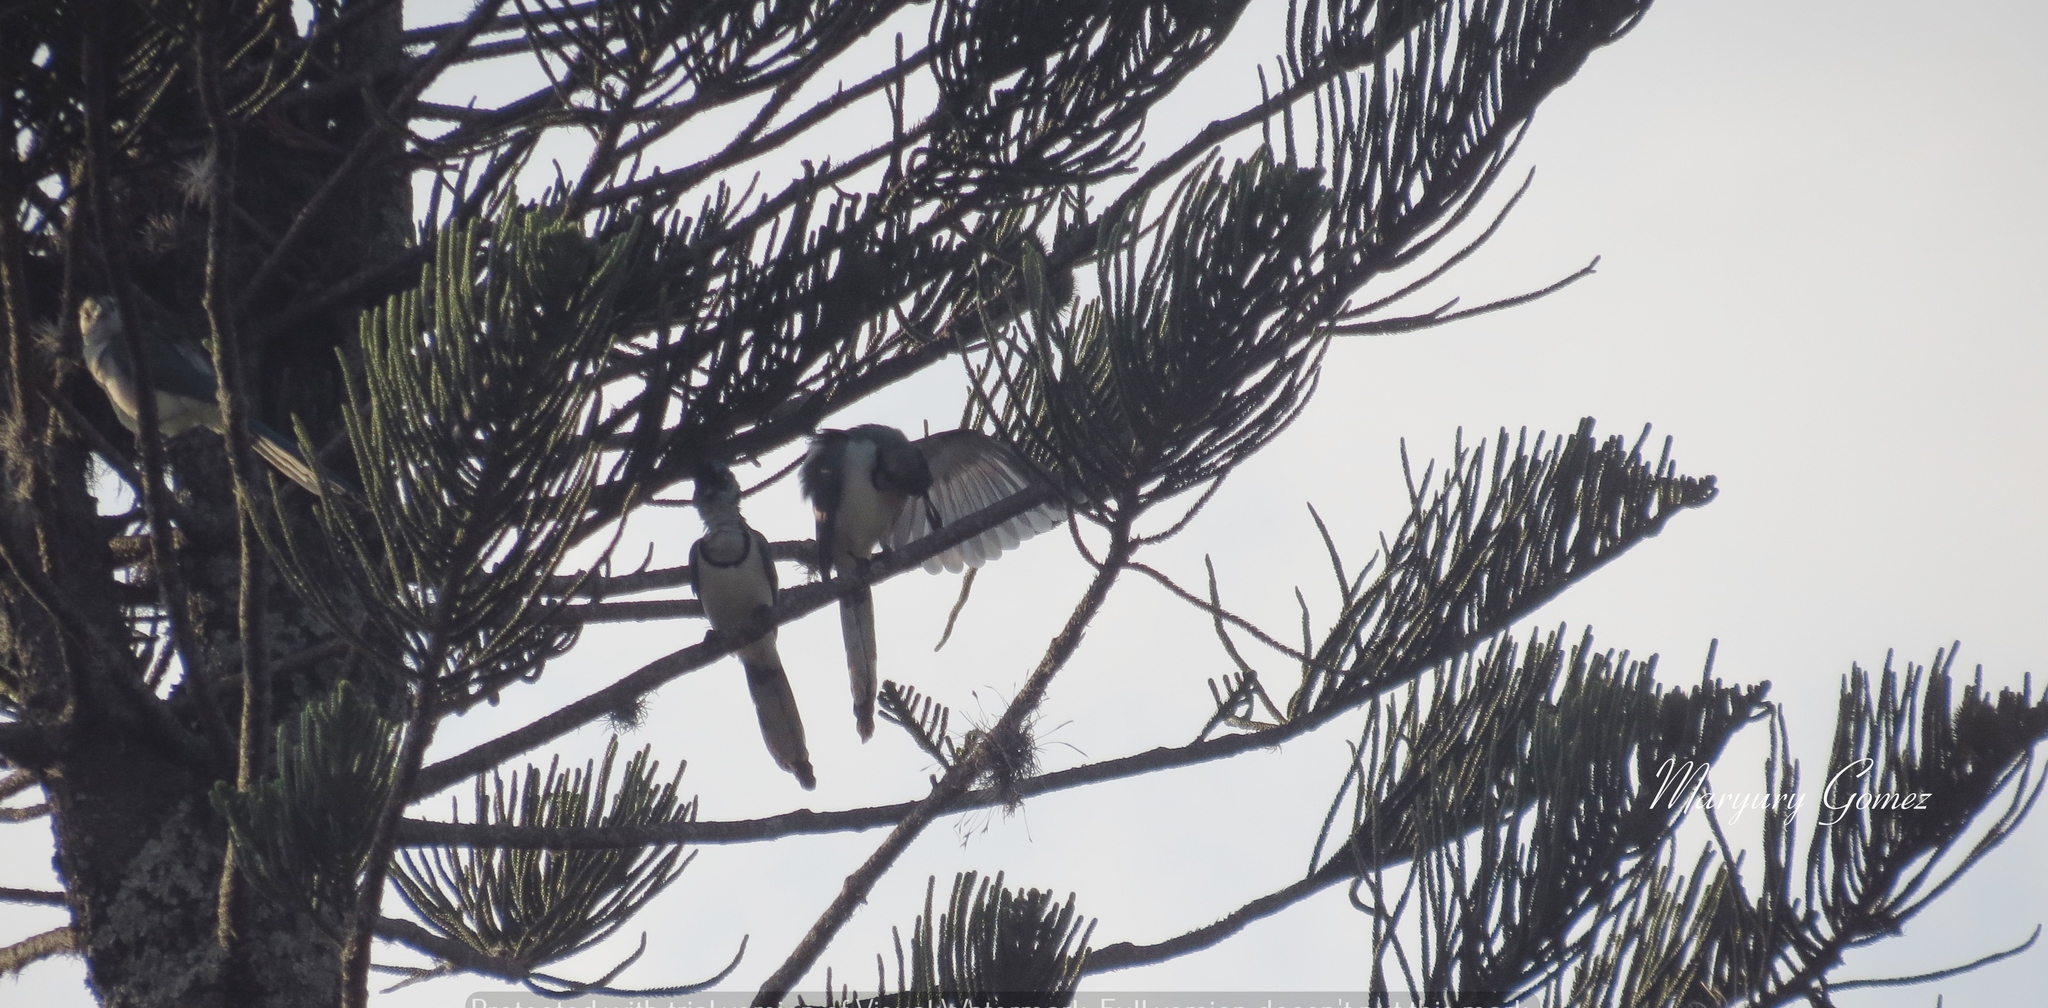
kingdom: Animalia
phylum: Chordata
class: Aves
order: Passeriformes
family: Corvidae
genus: Calocitta
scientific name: Calocitta formosa
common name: White-throated magpie-jay
